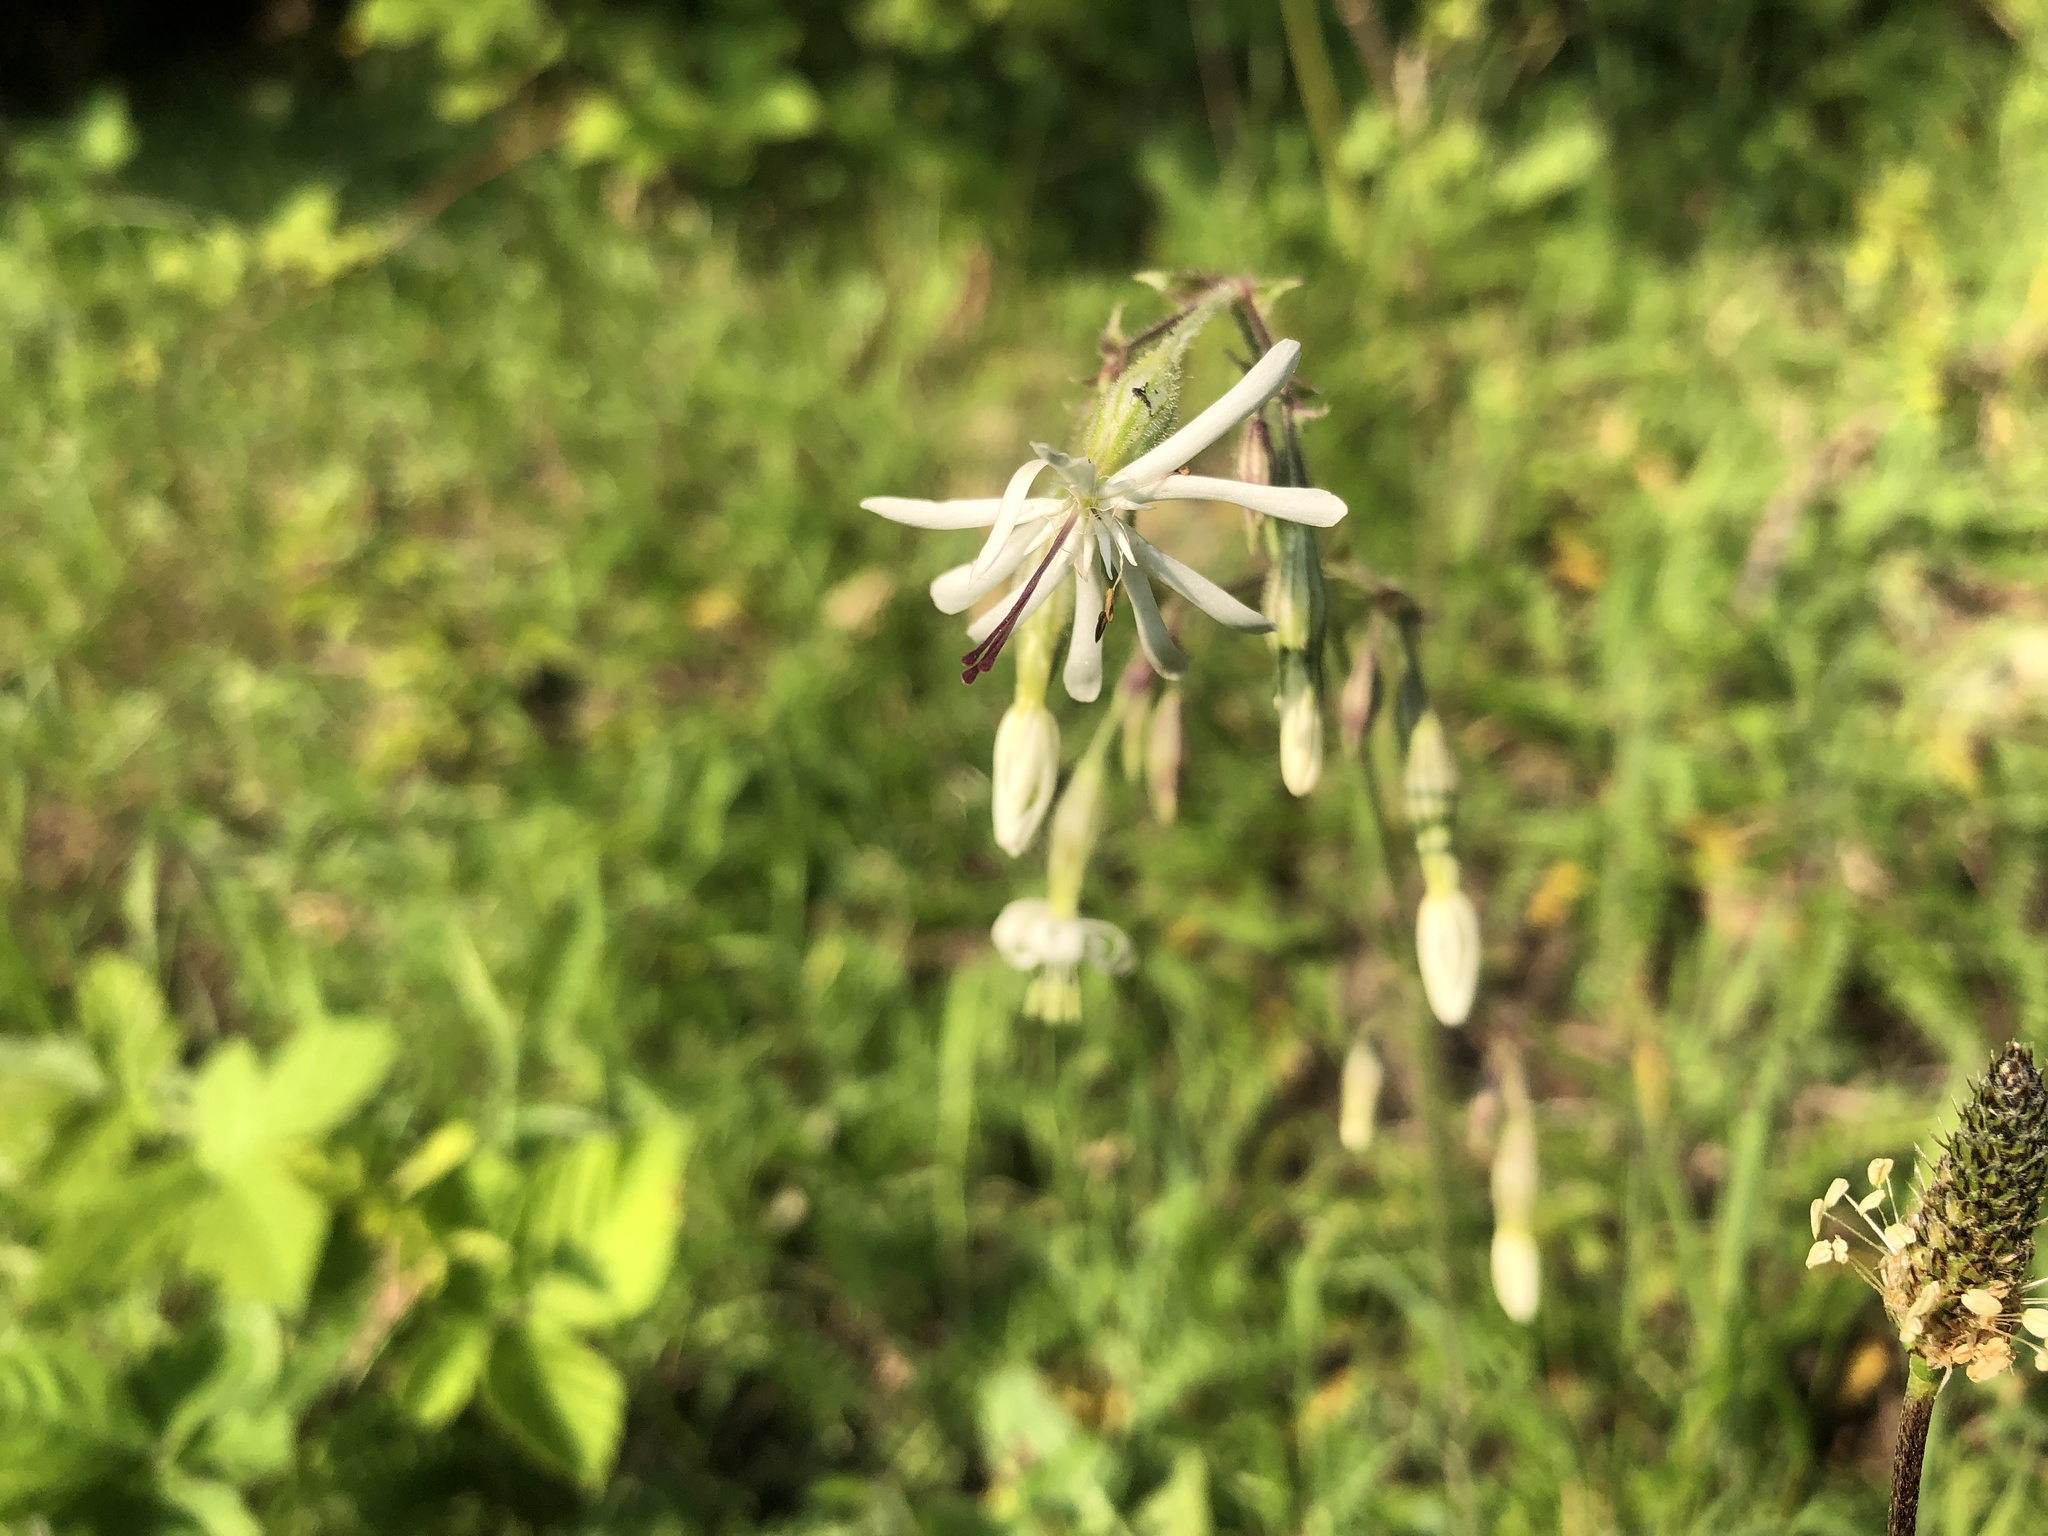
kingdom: Plantae
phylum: Tracheophyta
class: Magnoliopsida
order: Caryophyllales
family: Caryophyllaceae
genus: Silene
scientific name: Silene nutans
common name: Nottingham catchfly
